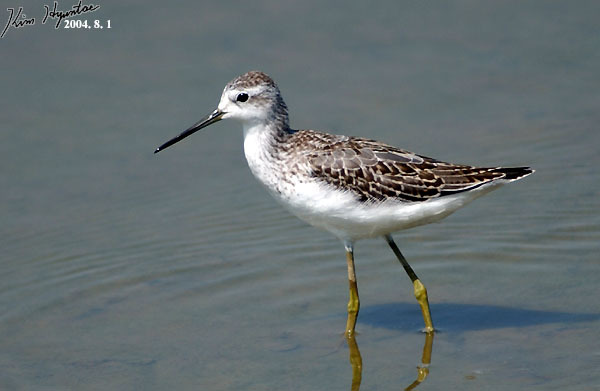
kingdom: Animalia
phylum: Chordata
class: Aves
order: Charadriiformes
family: Scolopacidae
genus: Tringa
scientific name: Tringa stagnatilis
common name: Marsh sandpiper
